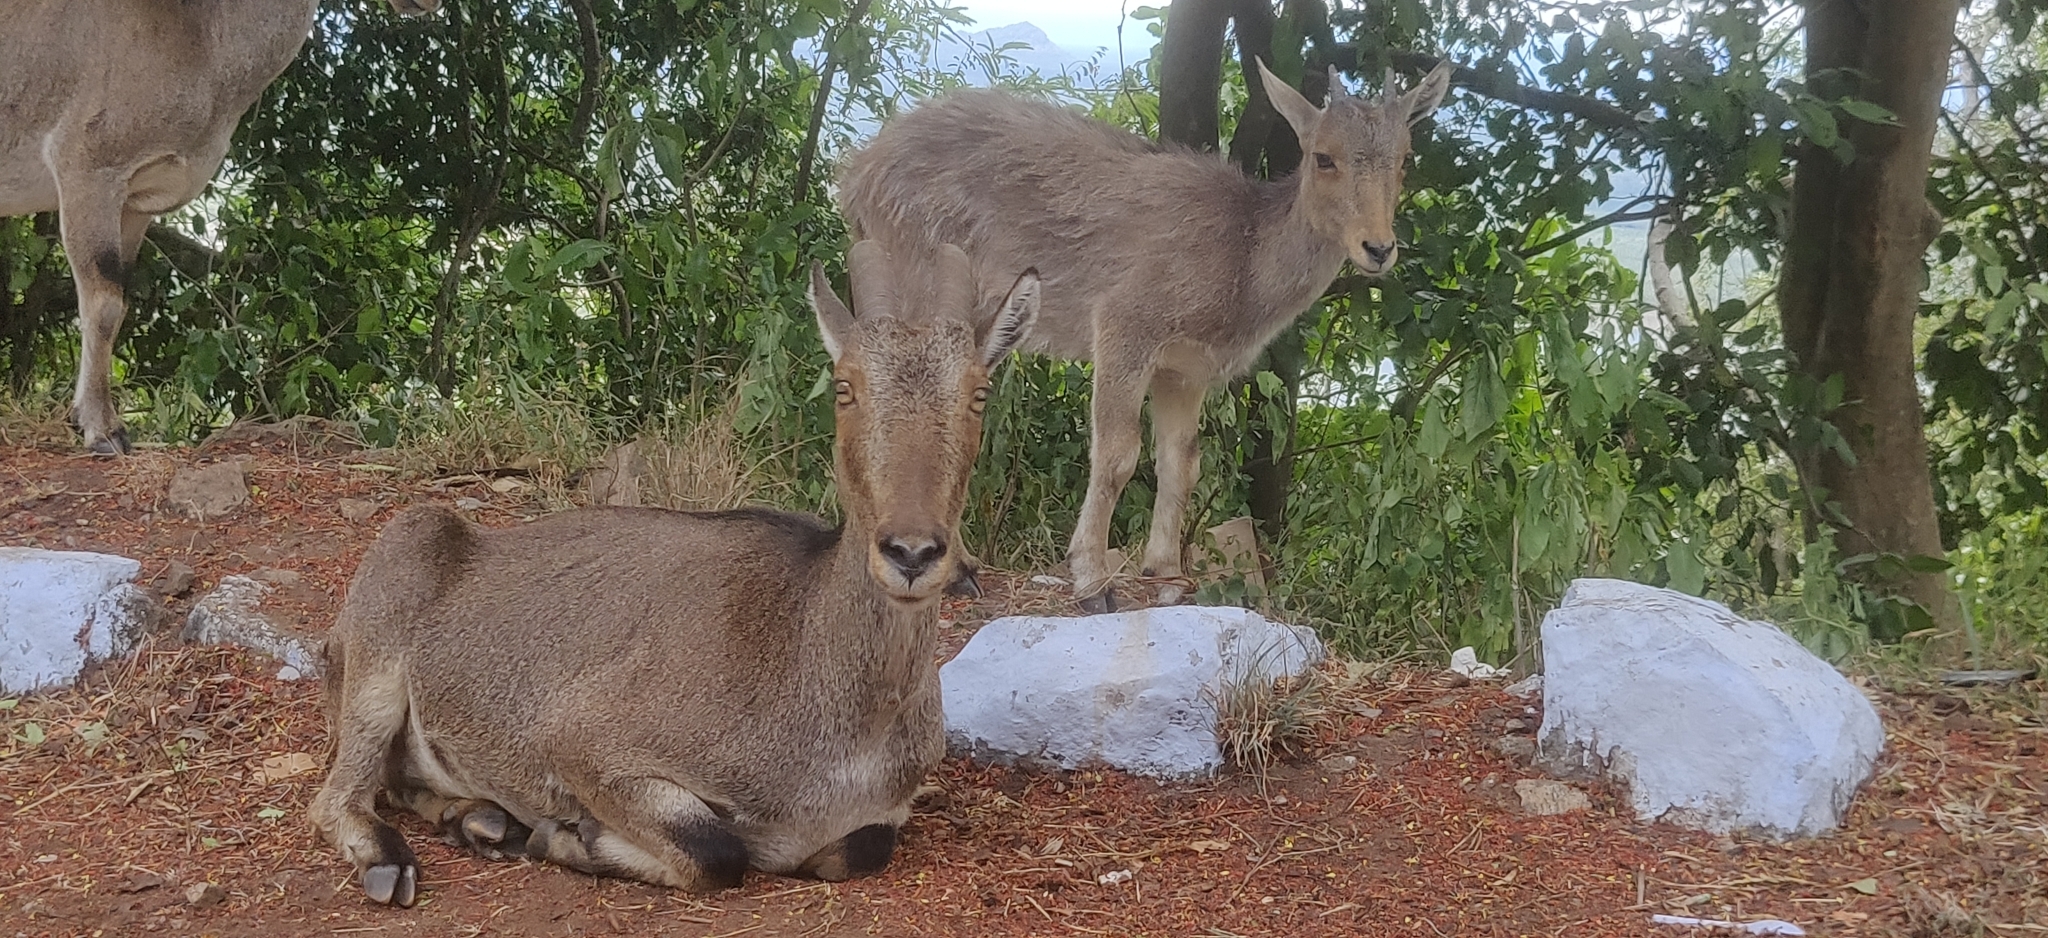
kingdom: Animalia
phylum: Chordata
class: Mammalia
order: Artiodactyla
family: Bovidae
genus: Hemitragus
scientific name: Hemitragus hylocrius
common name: Nilgiri tahr
